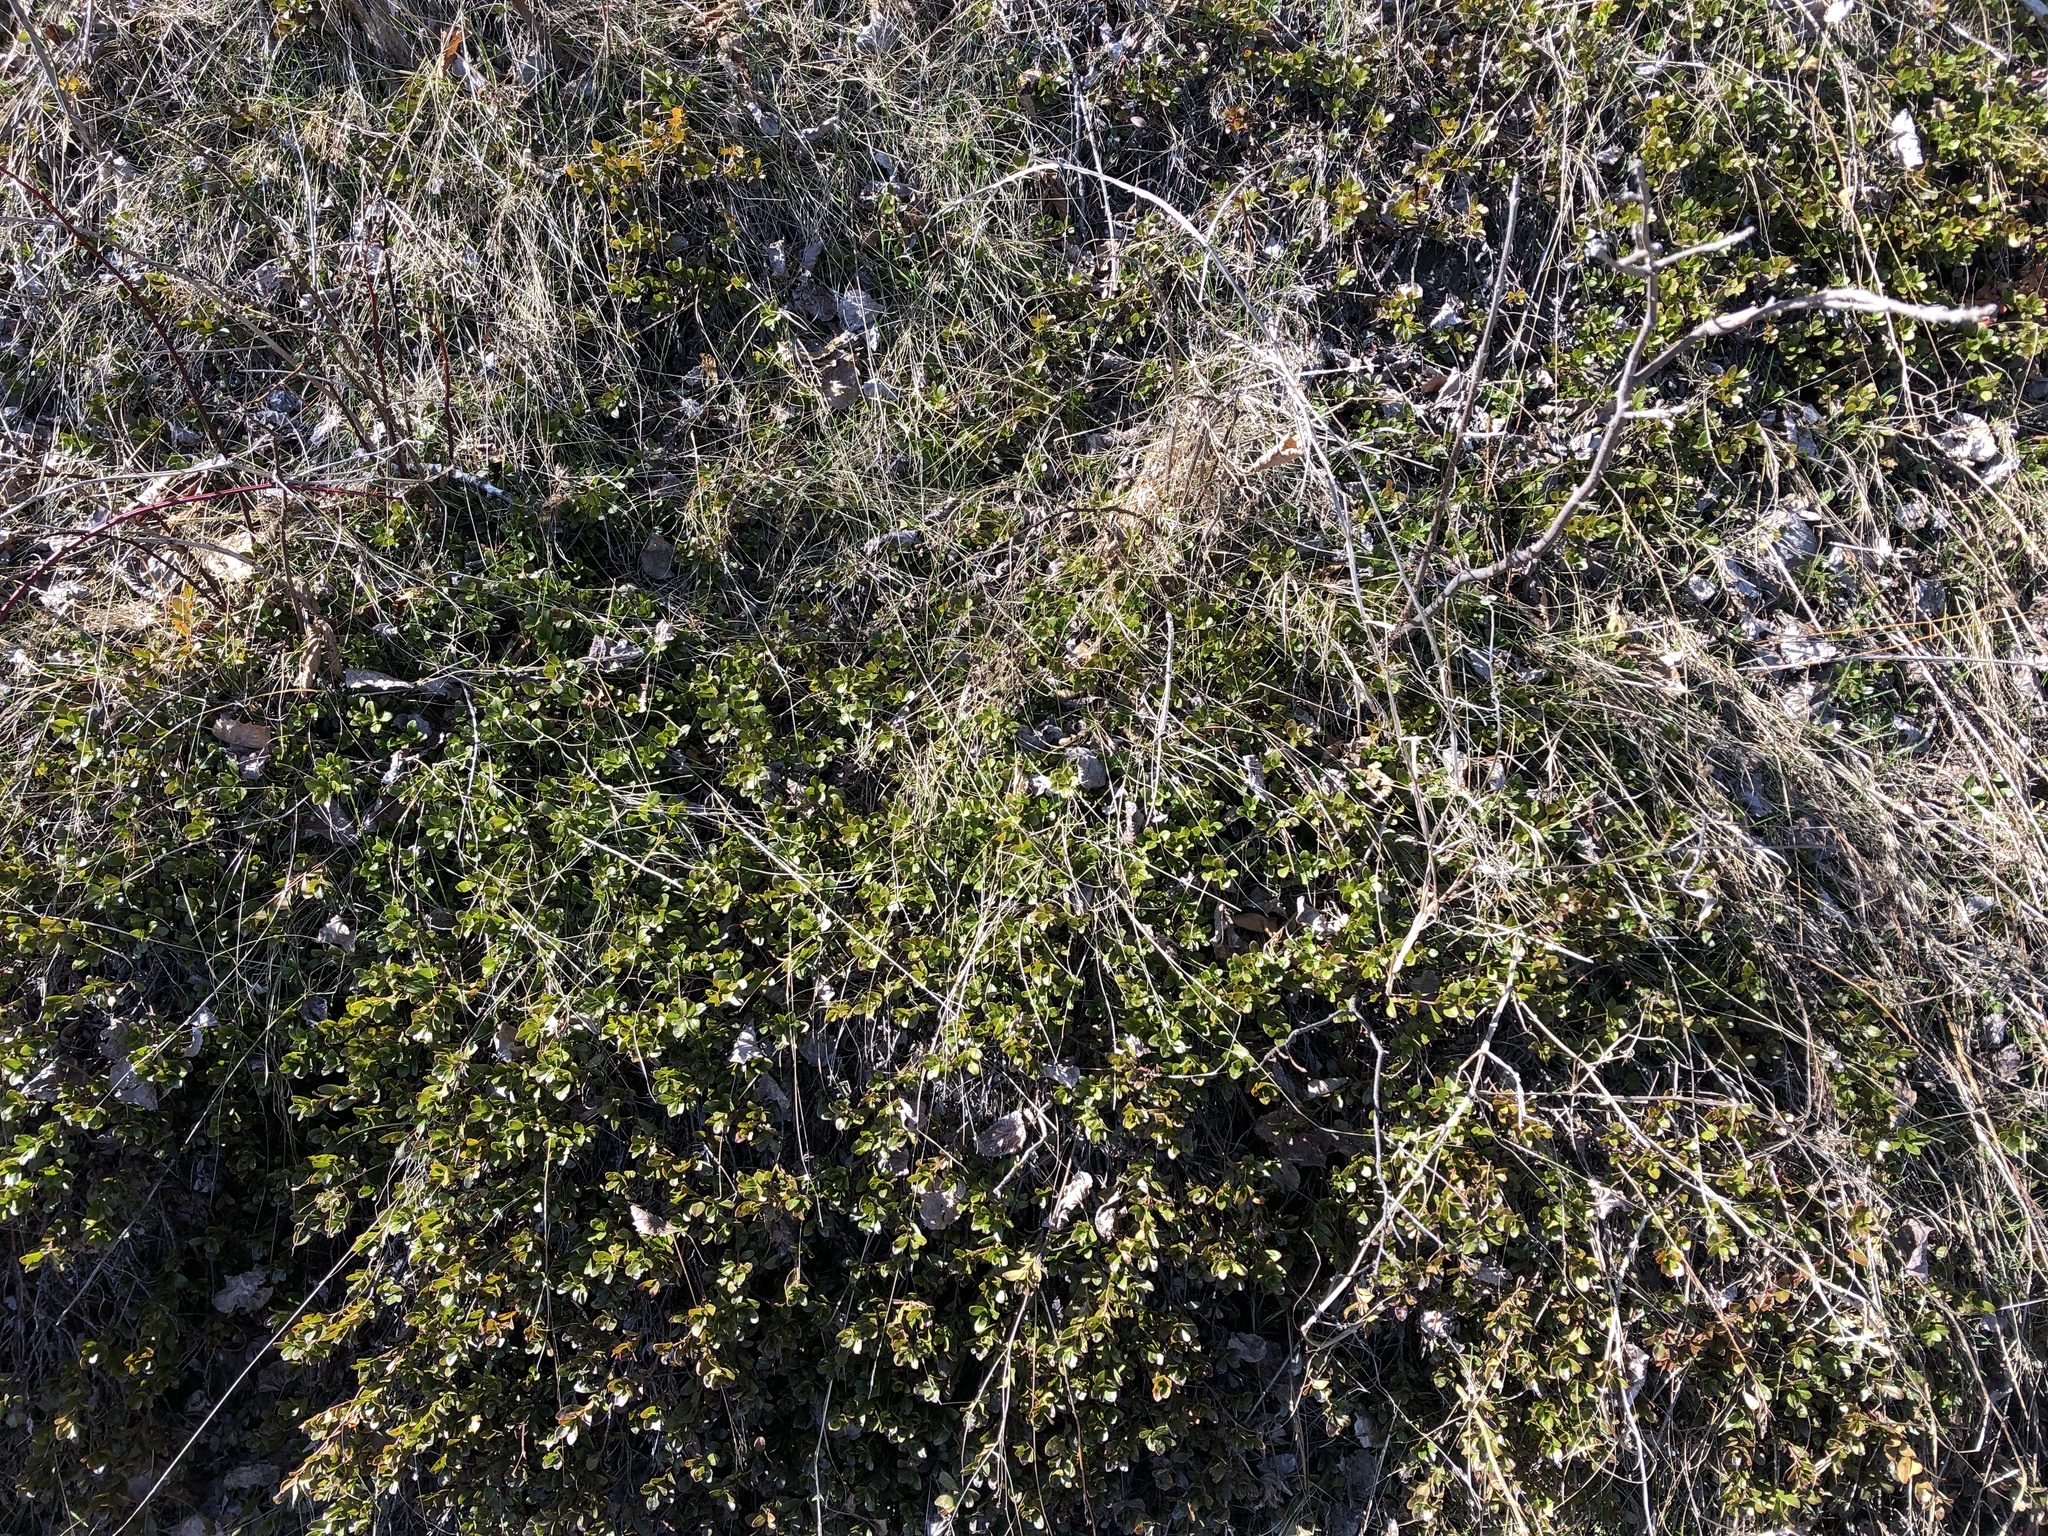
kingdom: Plantae
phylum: Tracheophyta
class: Magnoliopsida
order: Ericales
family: Ericaceae
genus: Arctostaphylos
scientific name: Arctostaphylos uva-ursi
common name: Bearberry
